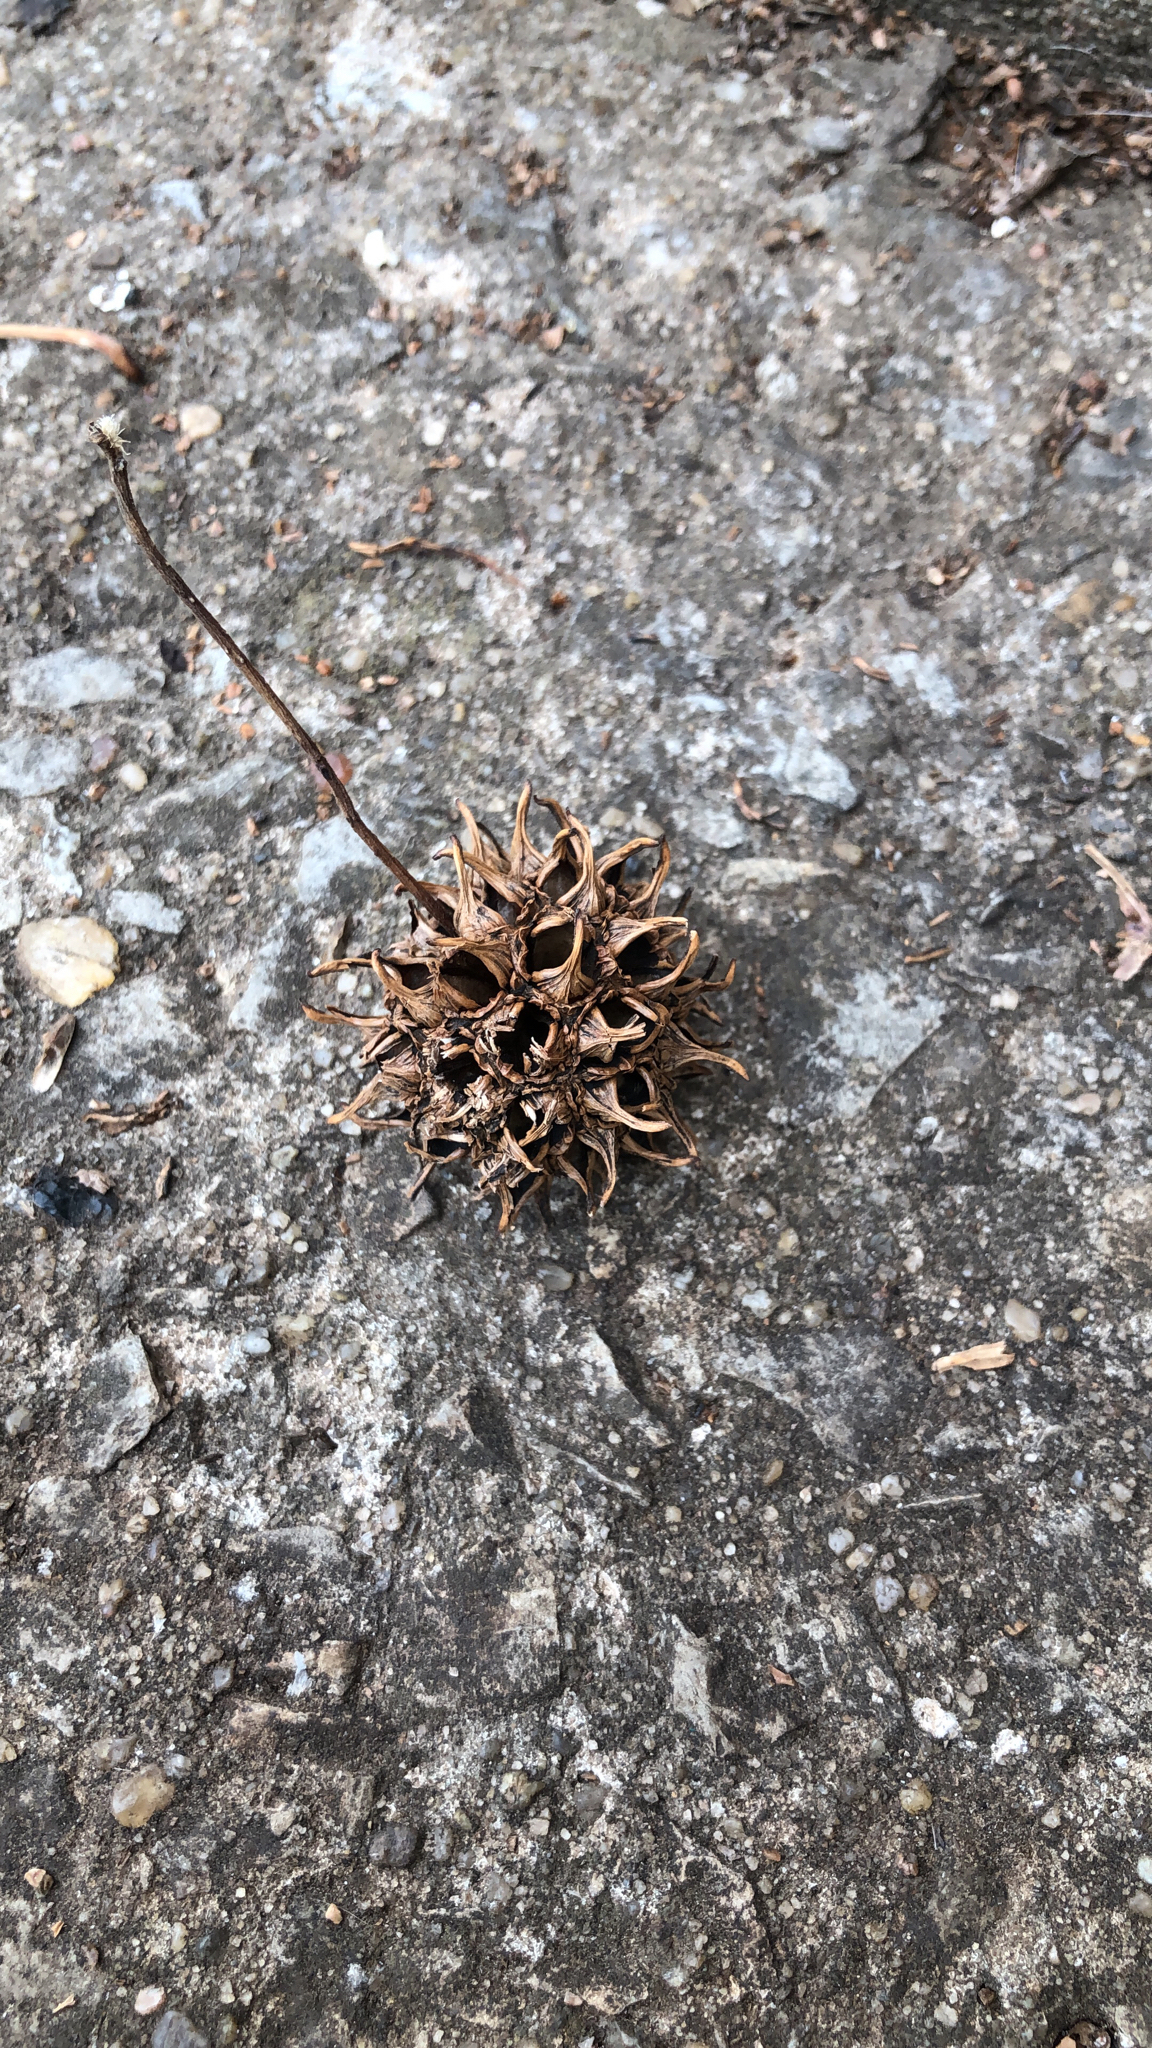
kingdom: Plantae
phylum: Tracheophyta
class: Magnoliopsida
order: Saxifragales
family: Altingiaceae
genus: Liquidambar
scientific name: Liquidambar styraciflua
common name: Sweet gum
